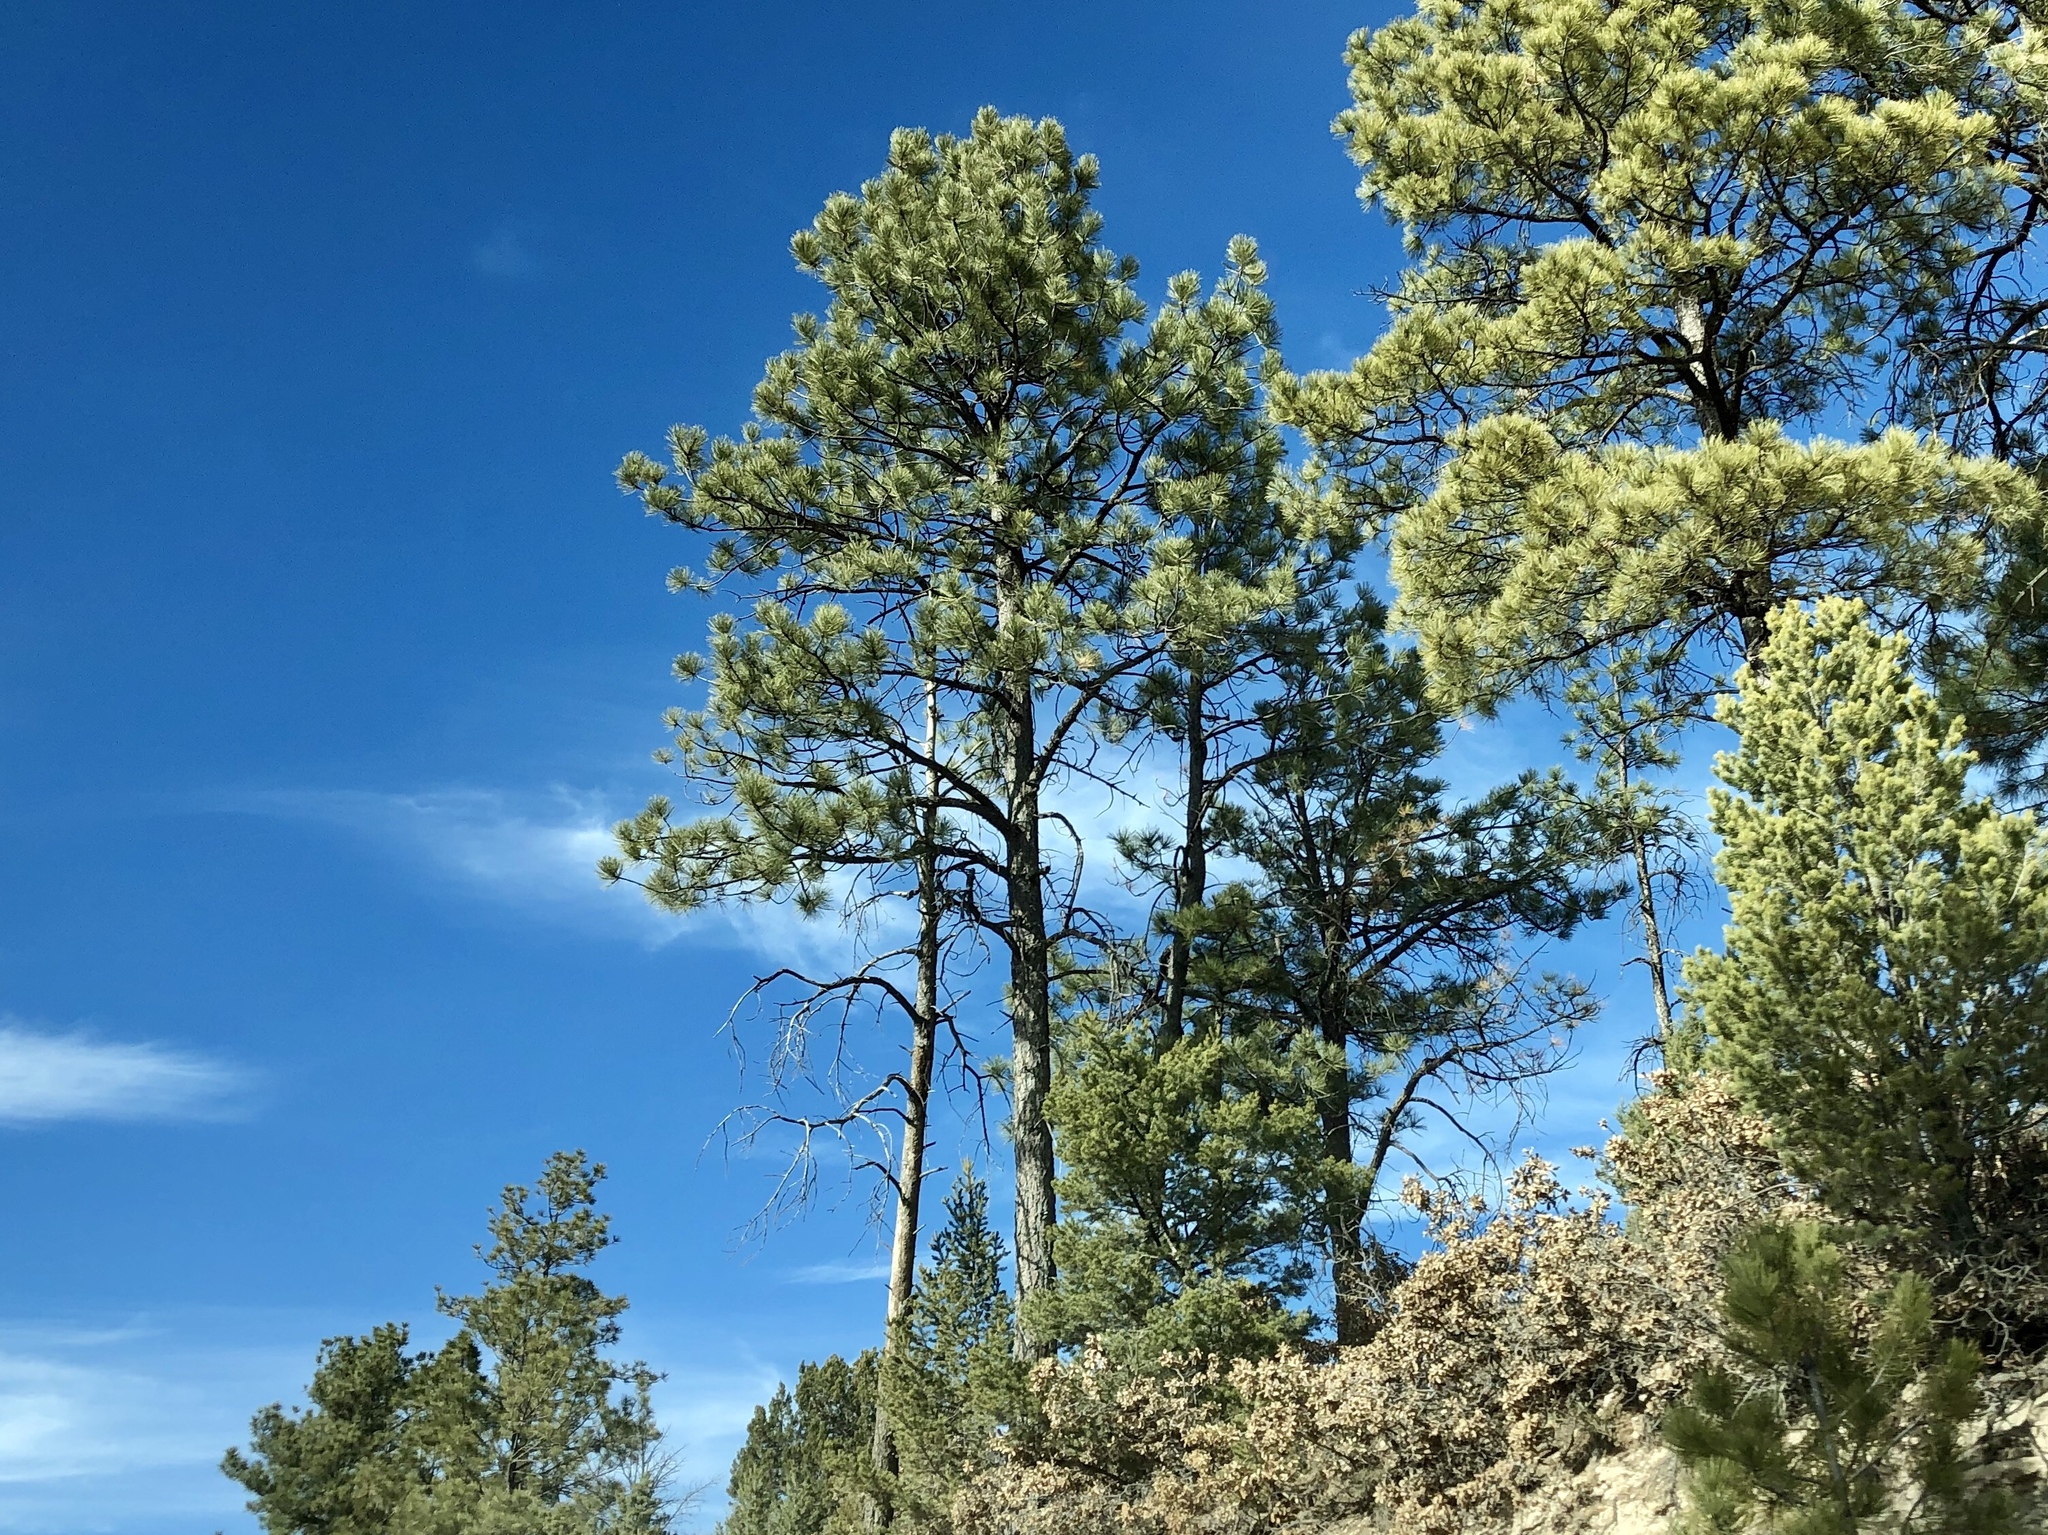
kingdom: Plantae
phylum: Tracheophyta
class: Pinopsida
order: Pinales
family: Pinaceae
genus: Pinus
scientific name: Pinus ponderosa
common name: Western yellow-pine
